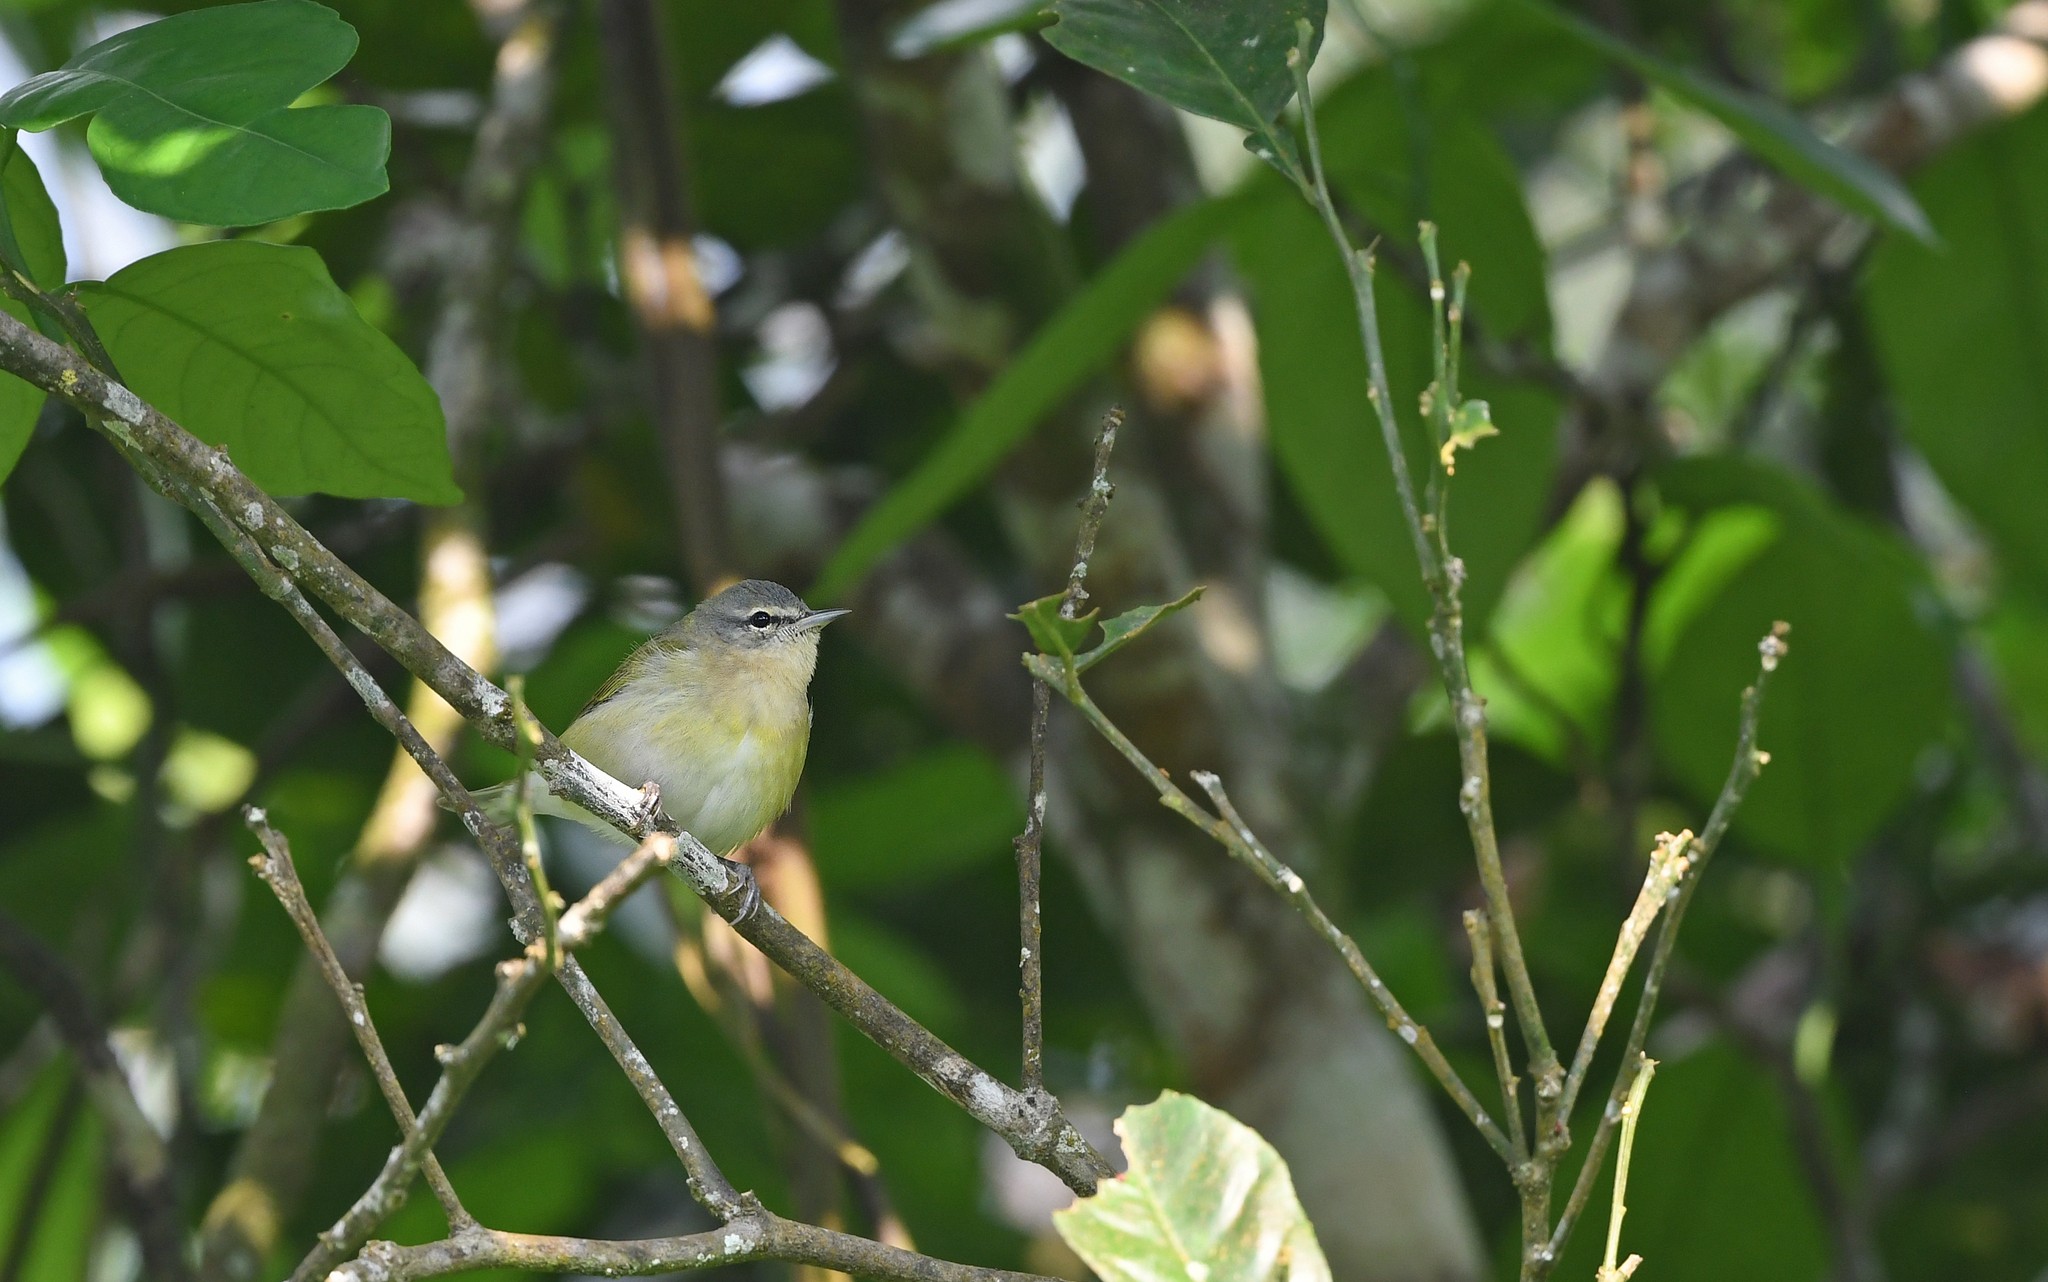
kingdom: Animalia
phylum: Chordata
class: Aves
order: Passeriformes
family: Parulidae
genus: Leiothlypis
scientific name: Leiothlypis peregrina
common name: Tennessee warbler
